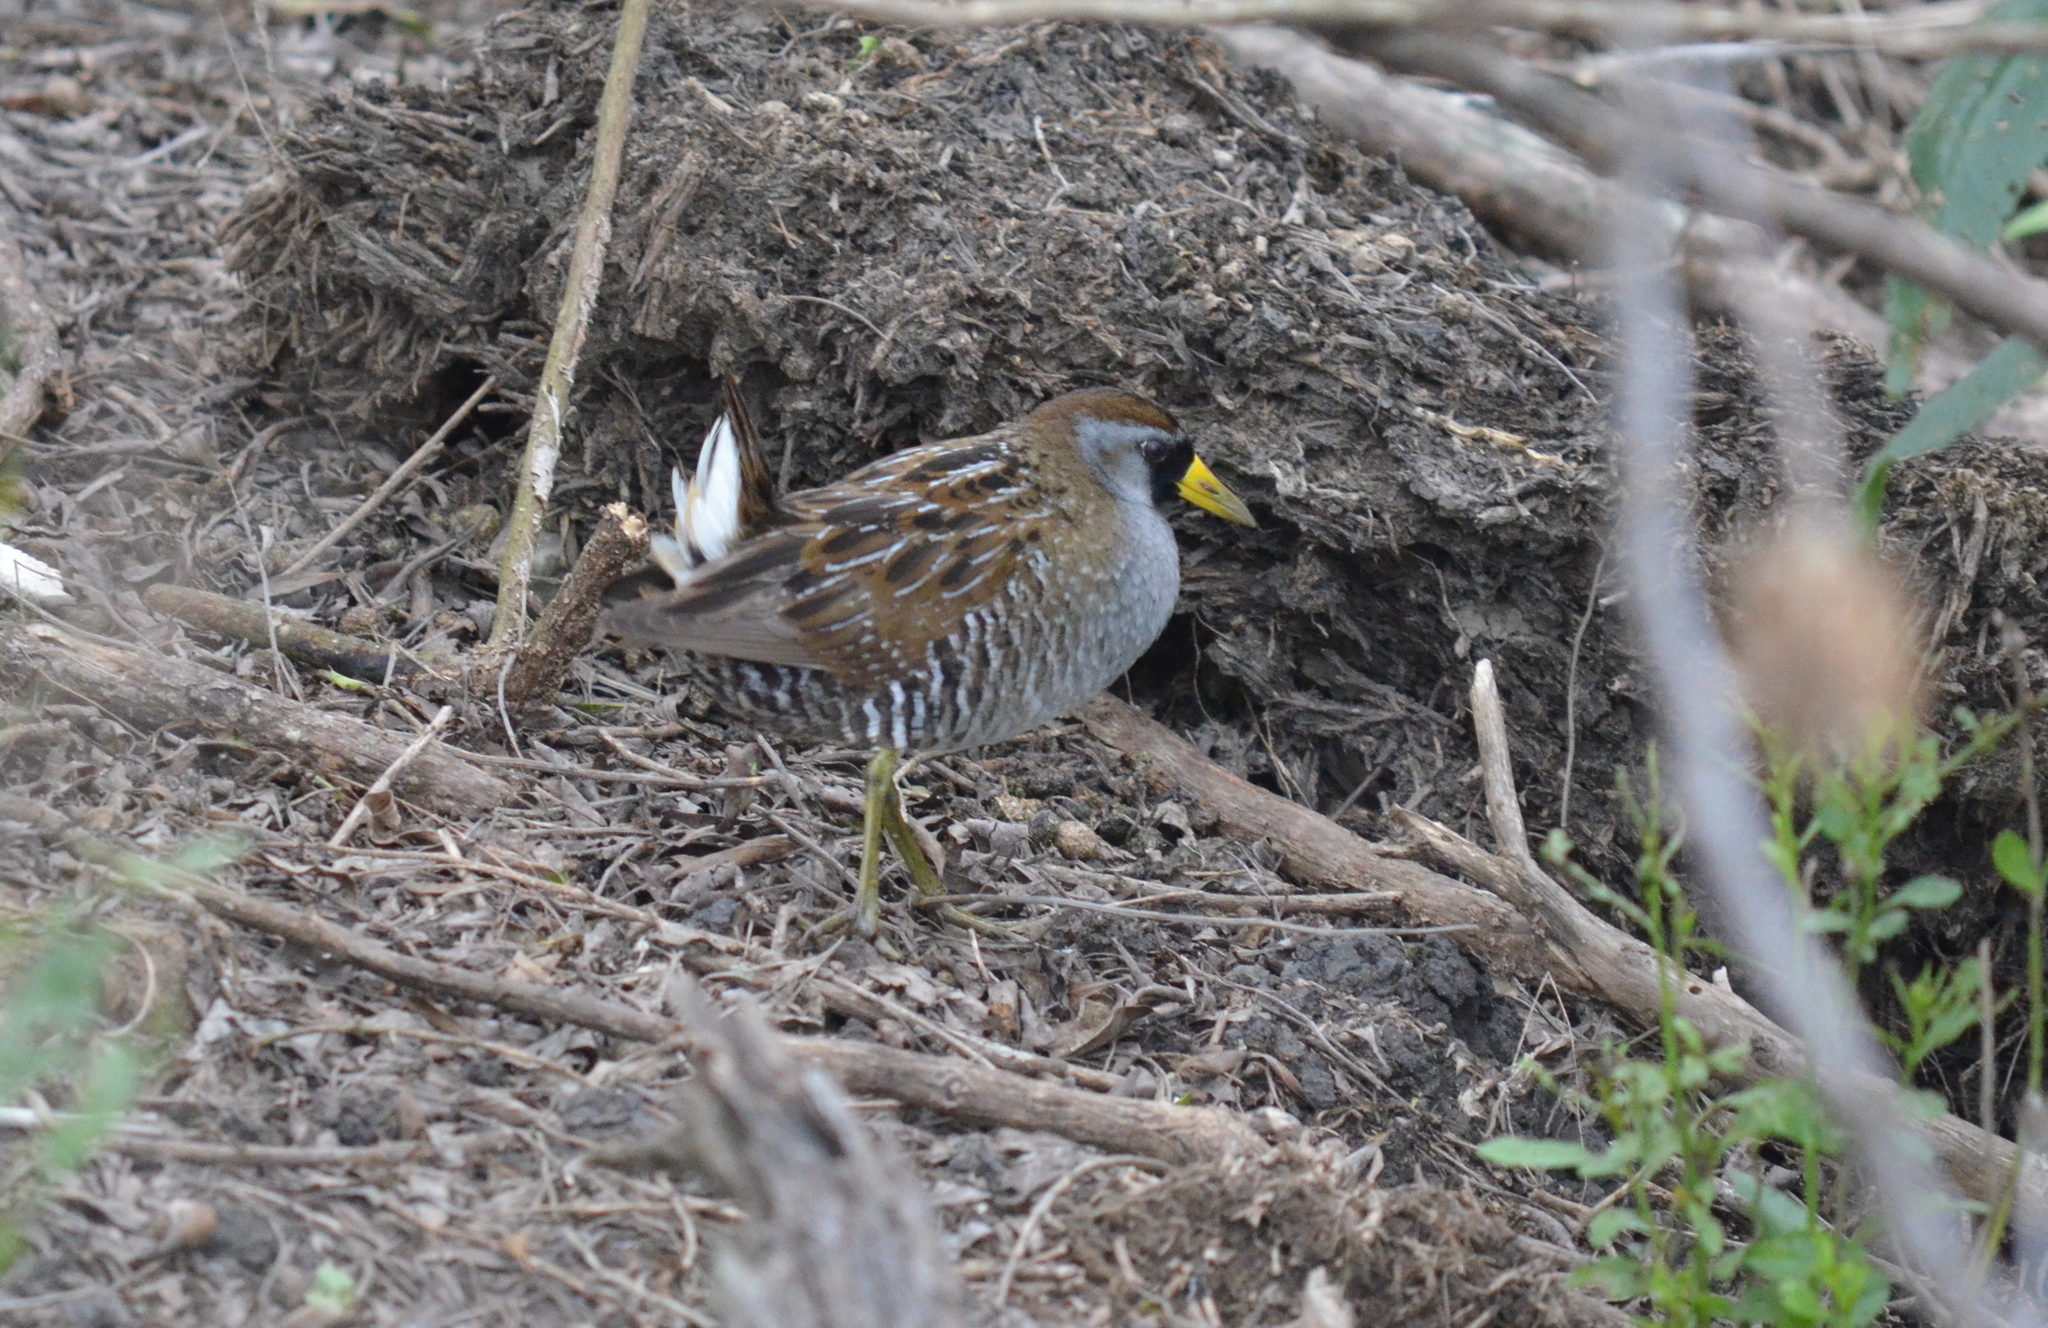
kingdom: Animalia
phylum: Chordata
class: Aves
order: Gruiformes
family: Rallidae
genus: Porzana
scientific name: Porzana carolina
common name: Sora
